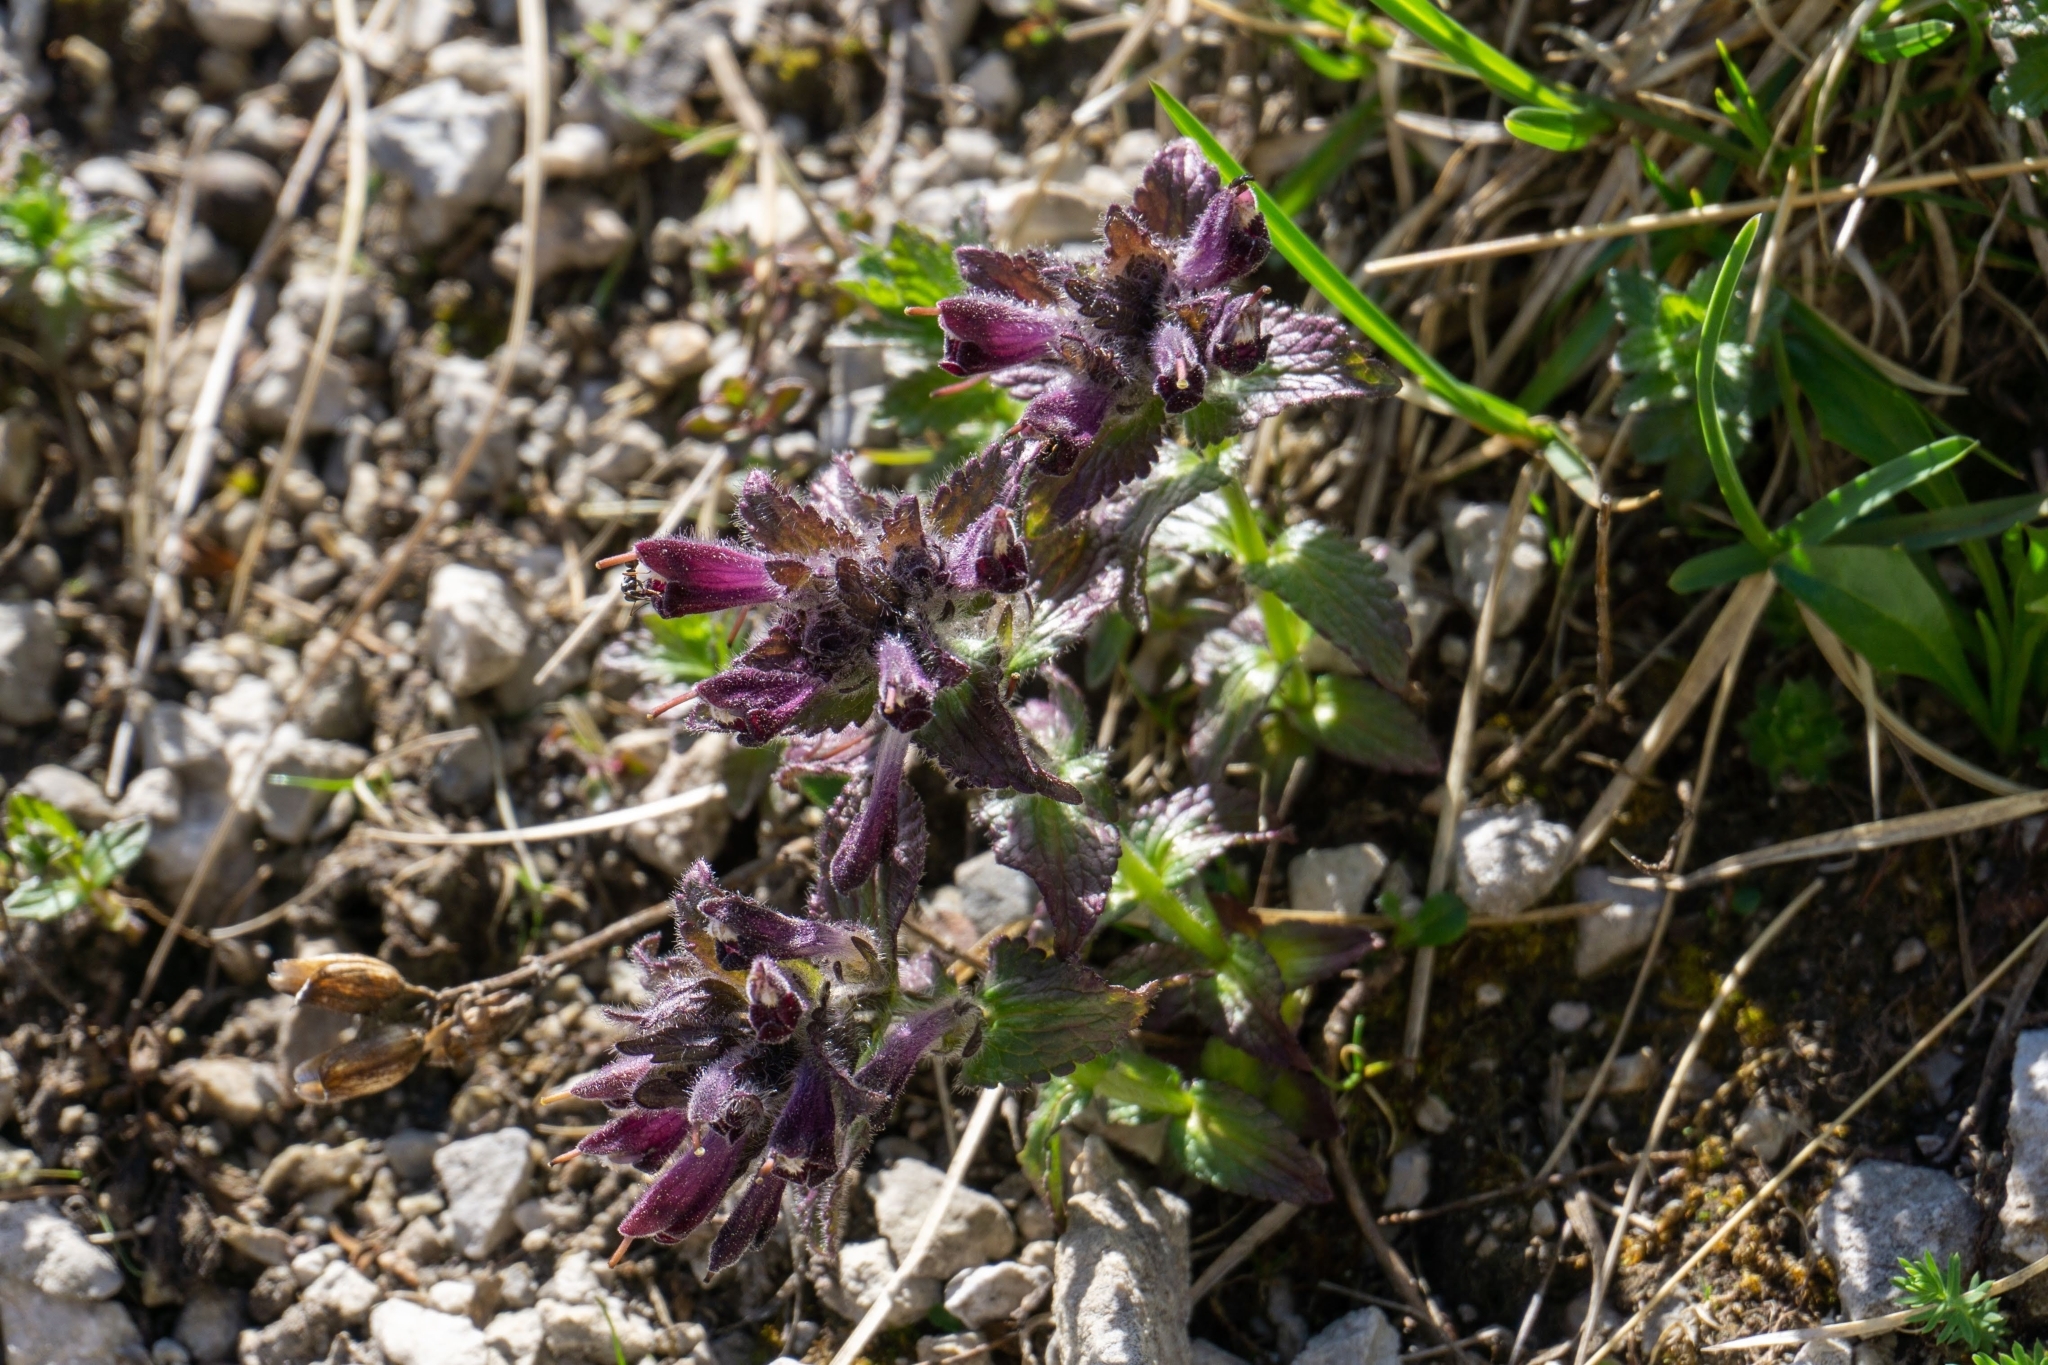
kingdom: Plantae
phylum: Tracheophyta
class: Magnoliopsida
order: Lamiales
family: Orobanchaceae
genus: Bartsia
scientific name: Bartsia alpina
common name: Alpine bartsia
